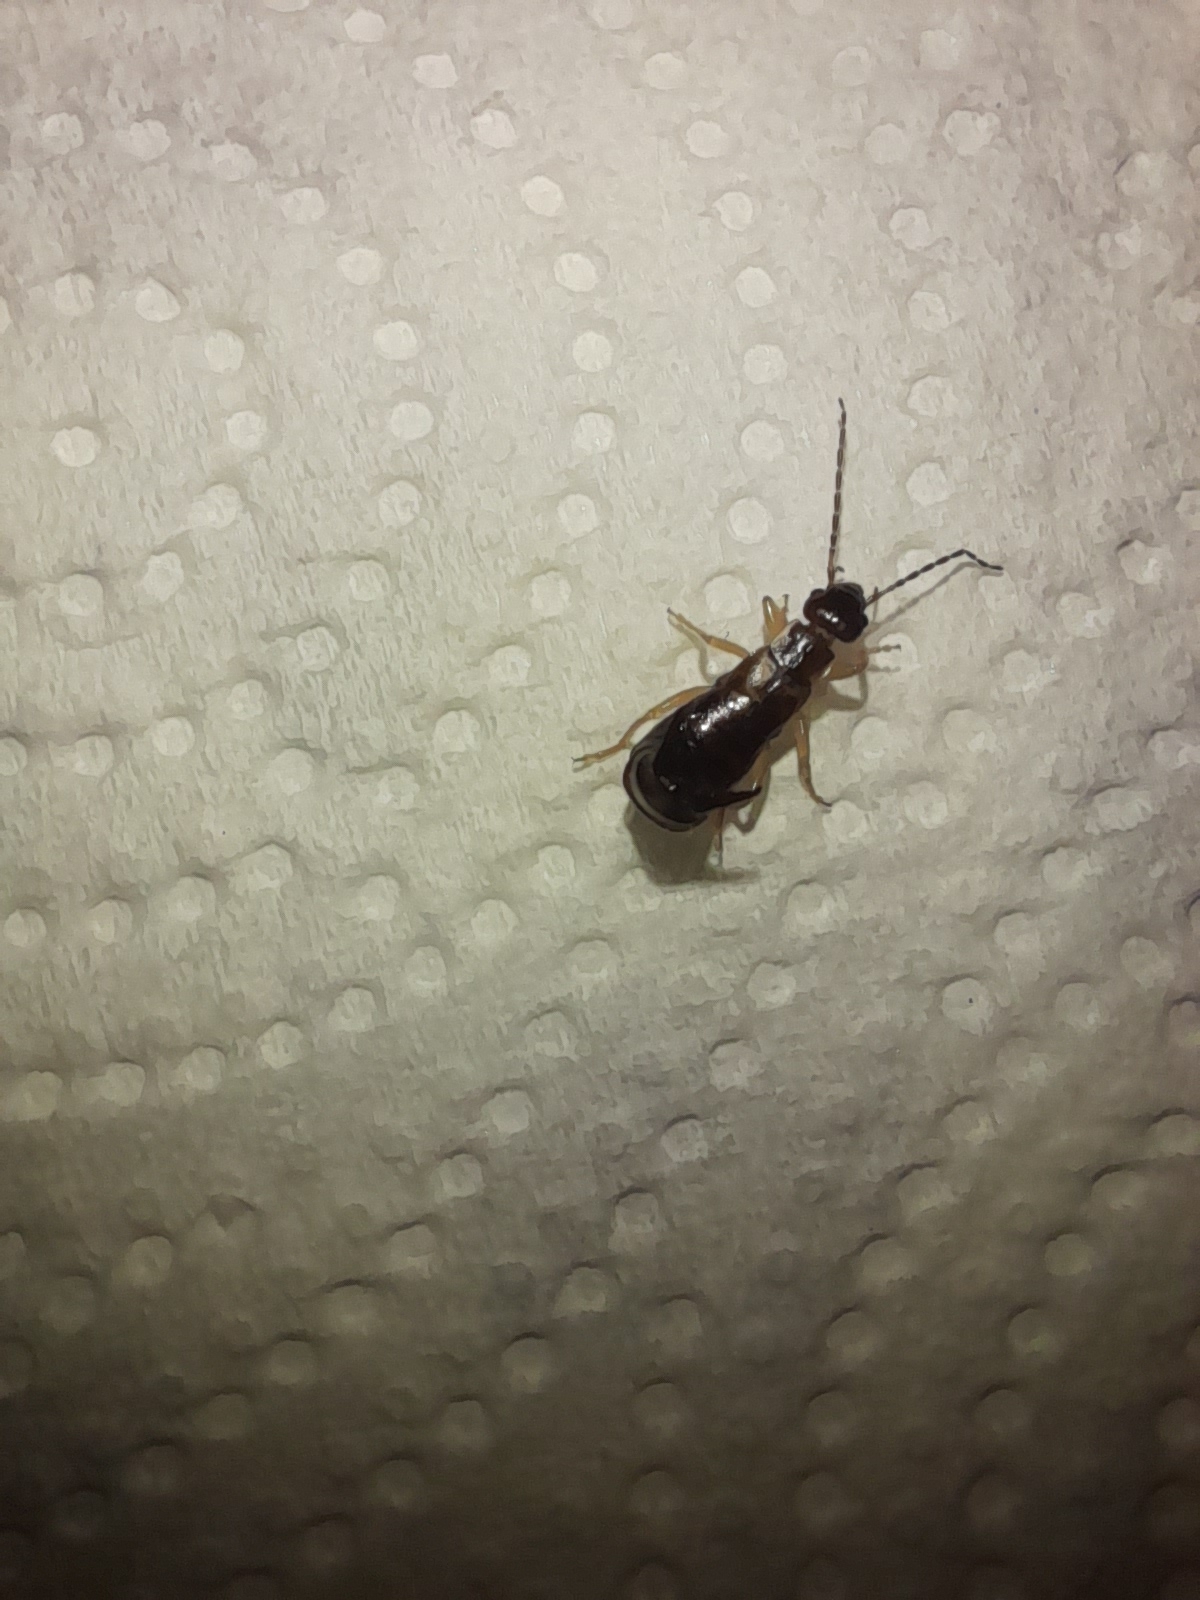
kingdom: Animalia
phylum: Arthropoda
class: Insecta
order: Dermaptera
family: Forficulidae
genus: Guanchia
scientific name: Guanchia pubescens
